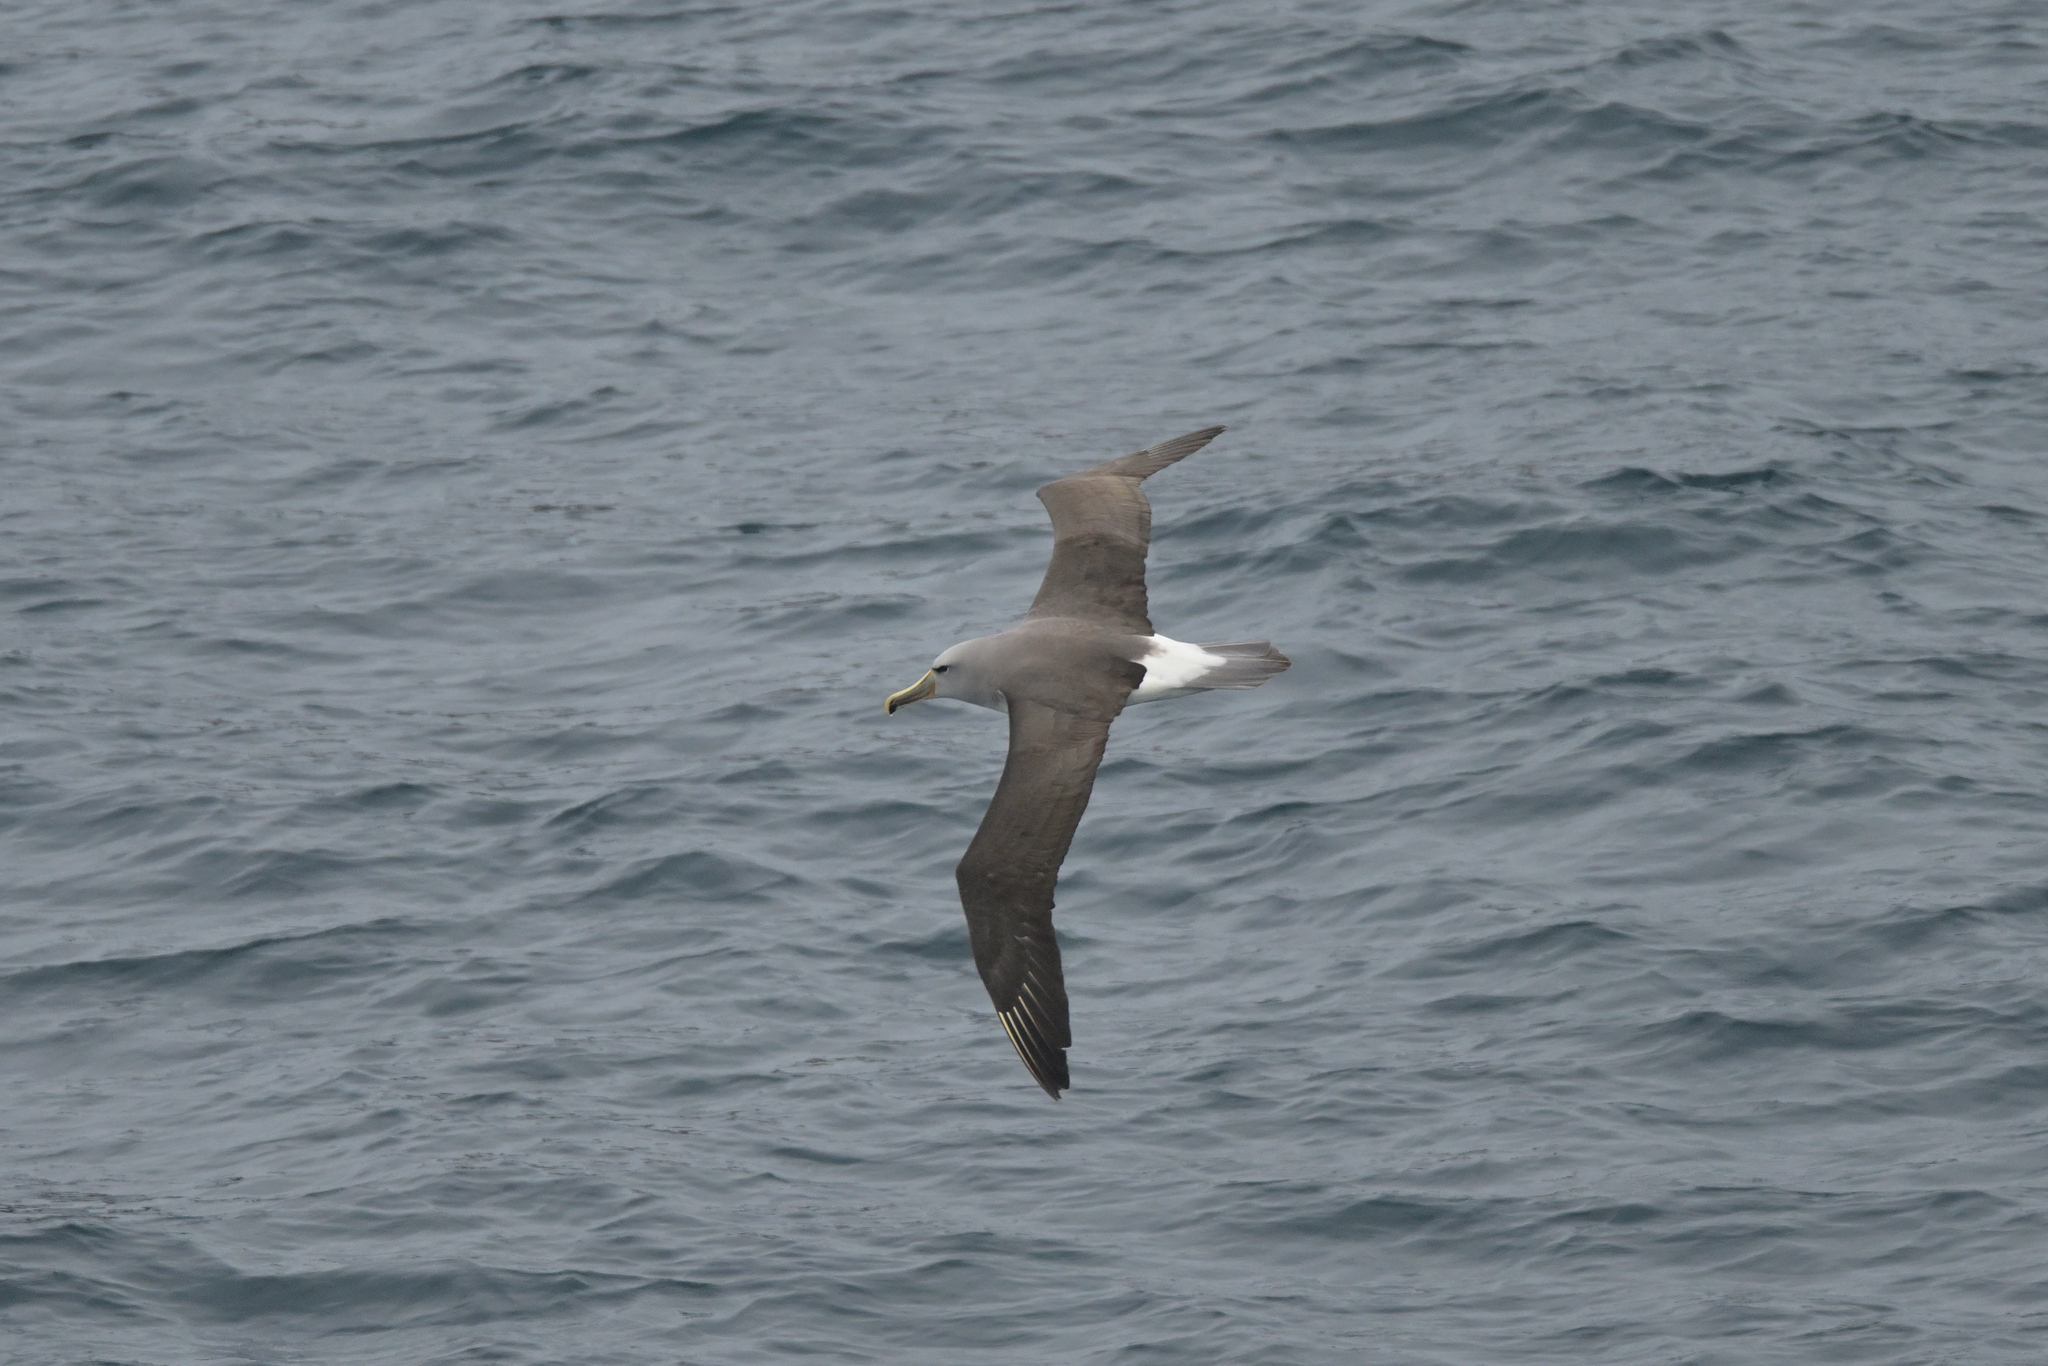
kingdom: Animalia
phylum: Chordata
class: Aves
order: Procellariiformes
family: Diomedeidae
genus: Thalassarche
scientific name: Thalassarche salvini
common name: Salvin's albatross
